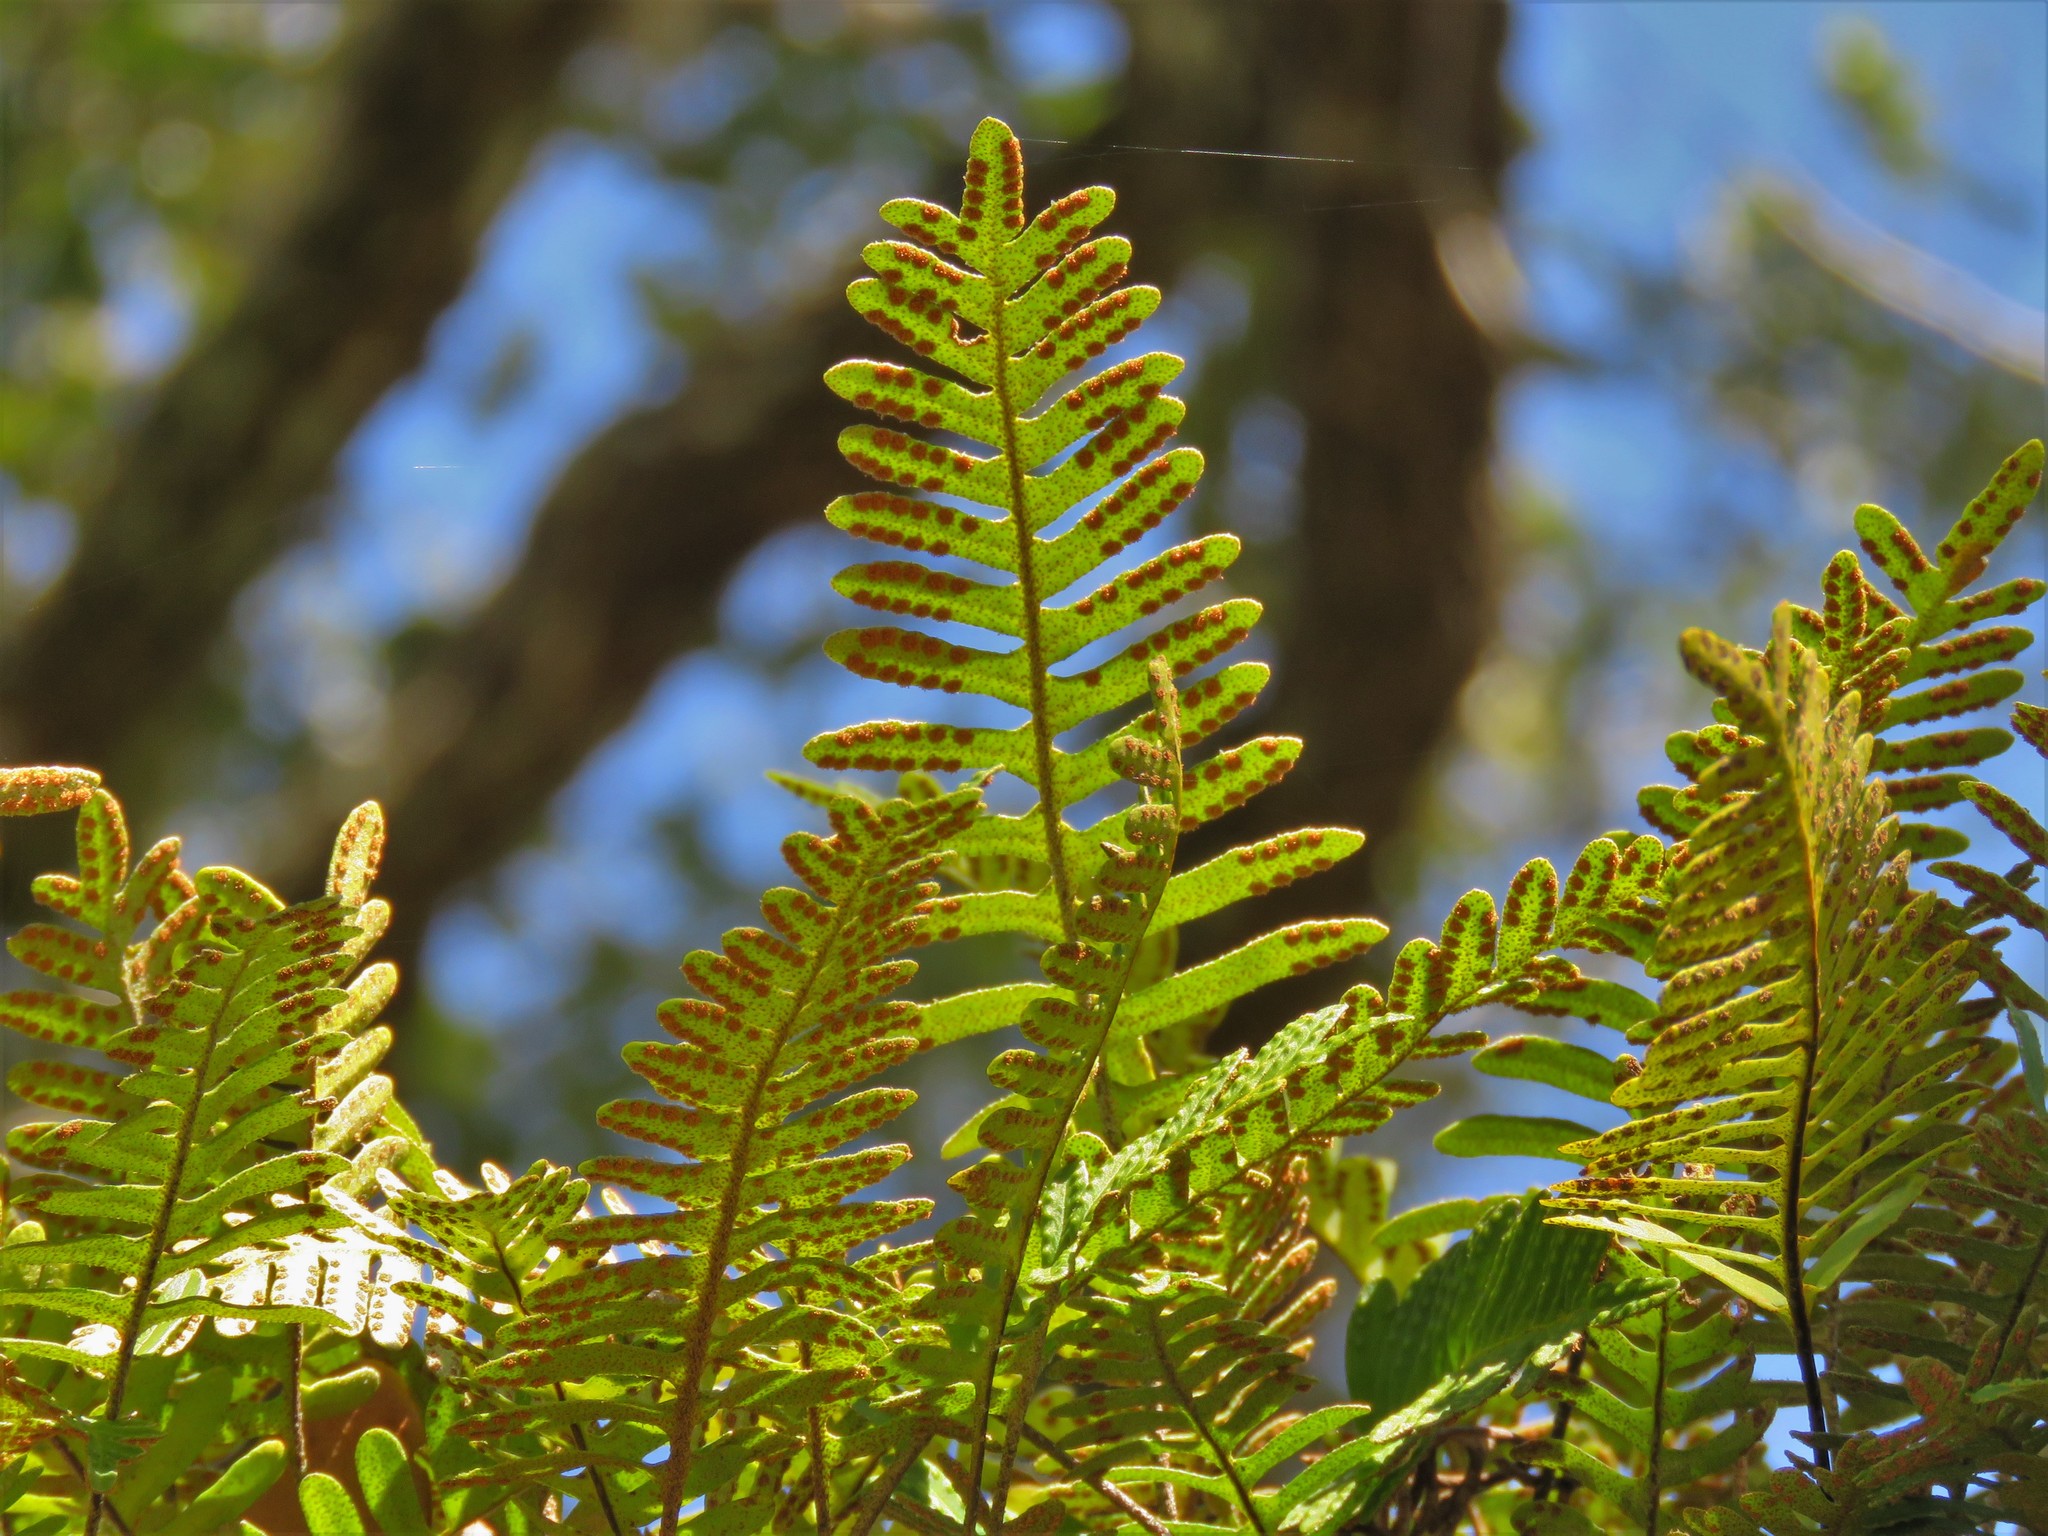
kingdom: Plantae
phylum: Tracheophyta
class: Polypodiopsida
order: Polypodiales
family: Polypodiaceae
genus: Pleopeltis
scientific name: Pleopeltis michauxiana
